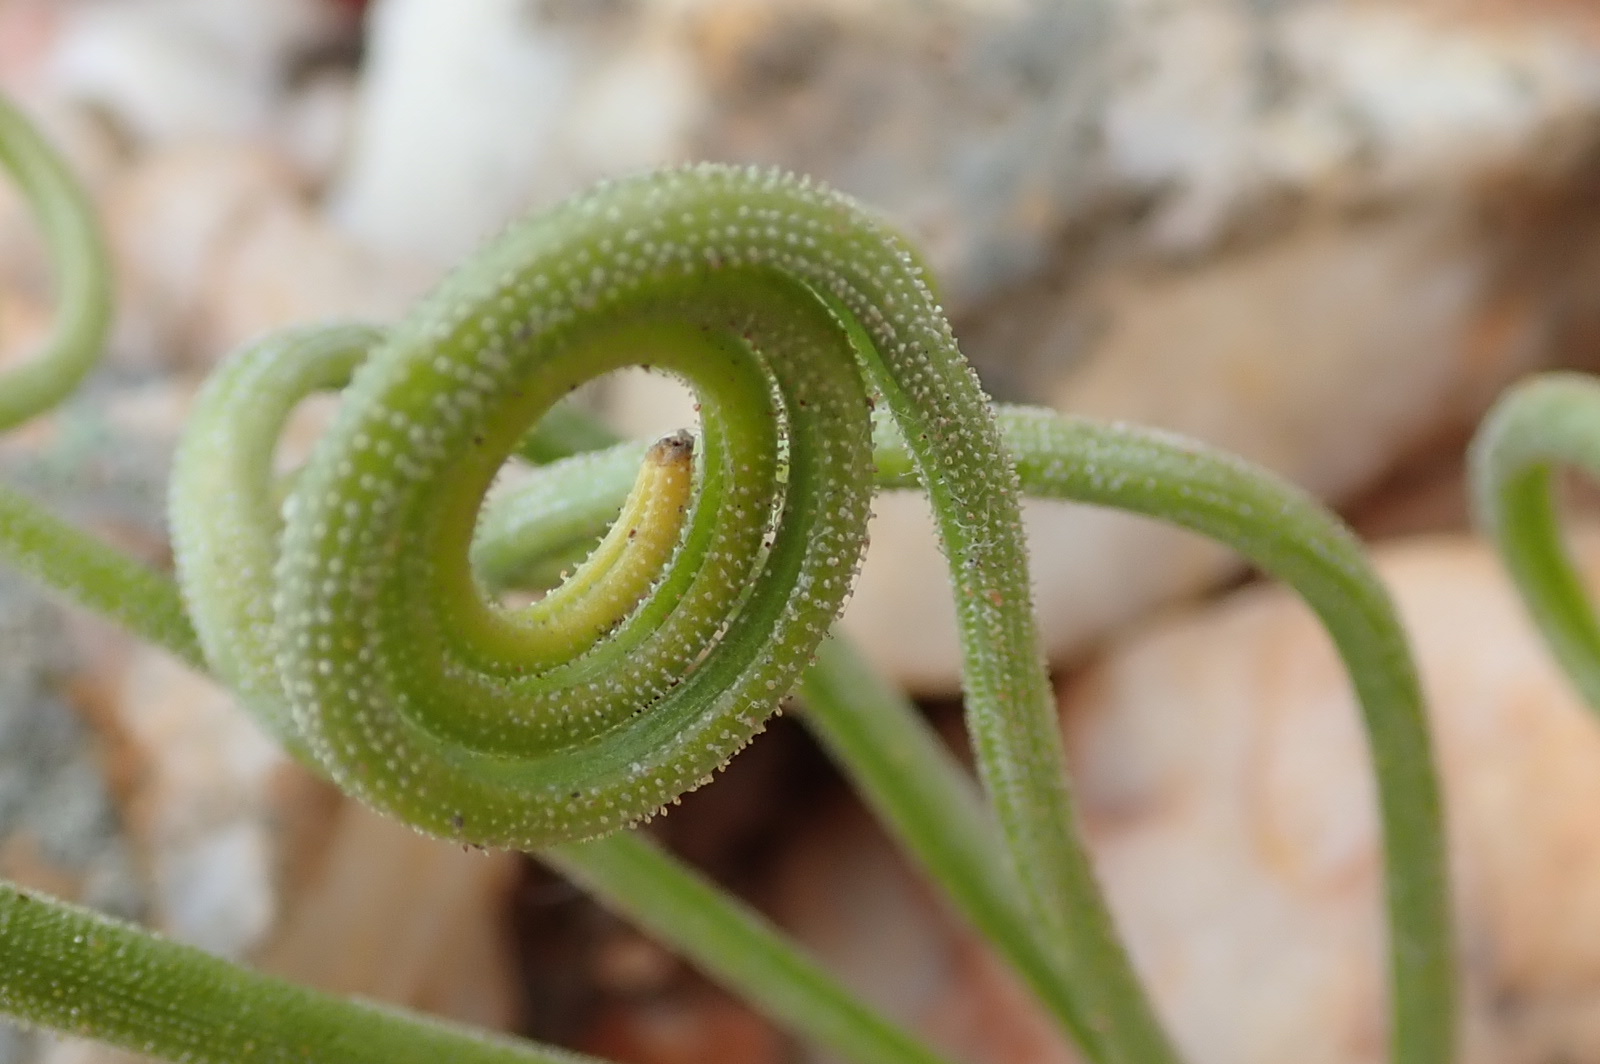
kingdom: Plantae
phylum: Tracheophyta
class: Liliopsida
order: Asparagales
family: Asparagaceae
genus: Albuca
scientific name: Albuca spiralis
